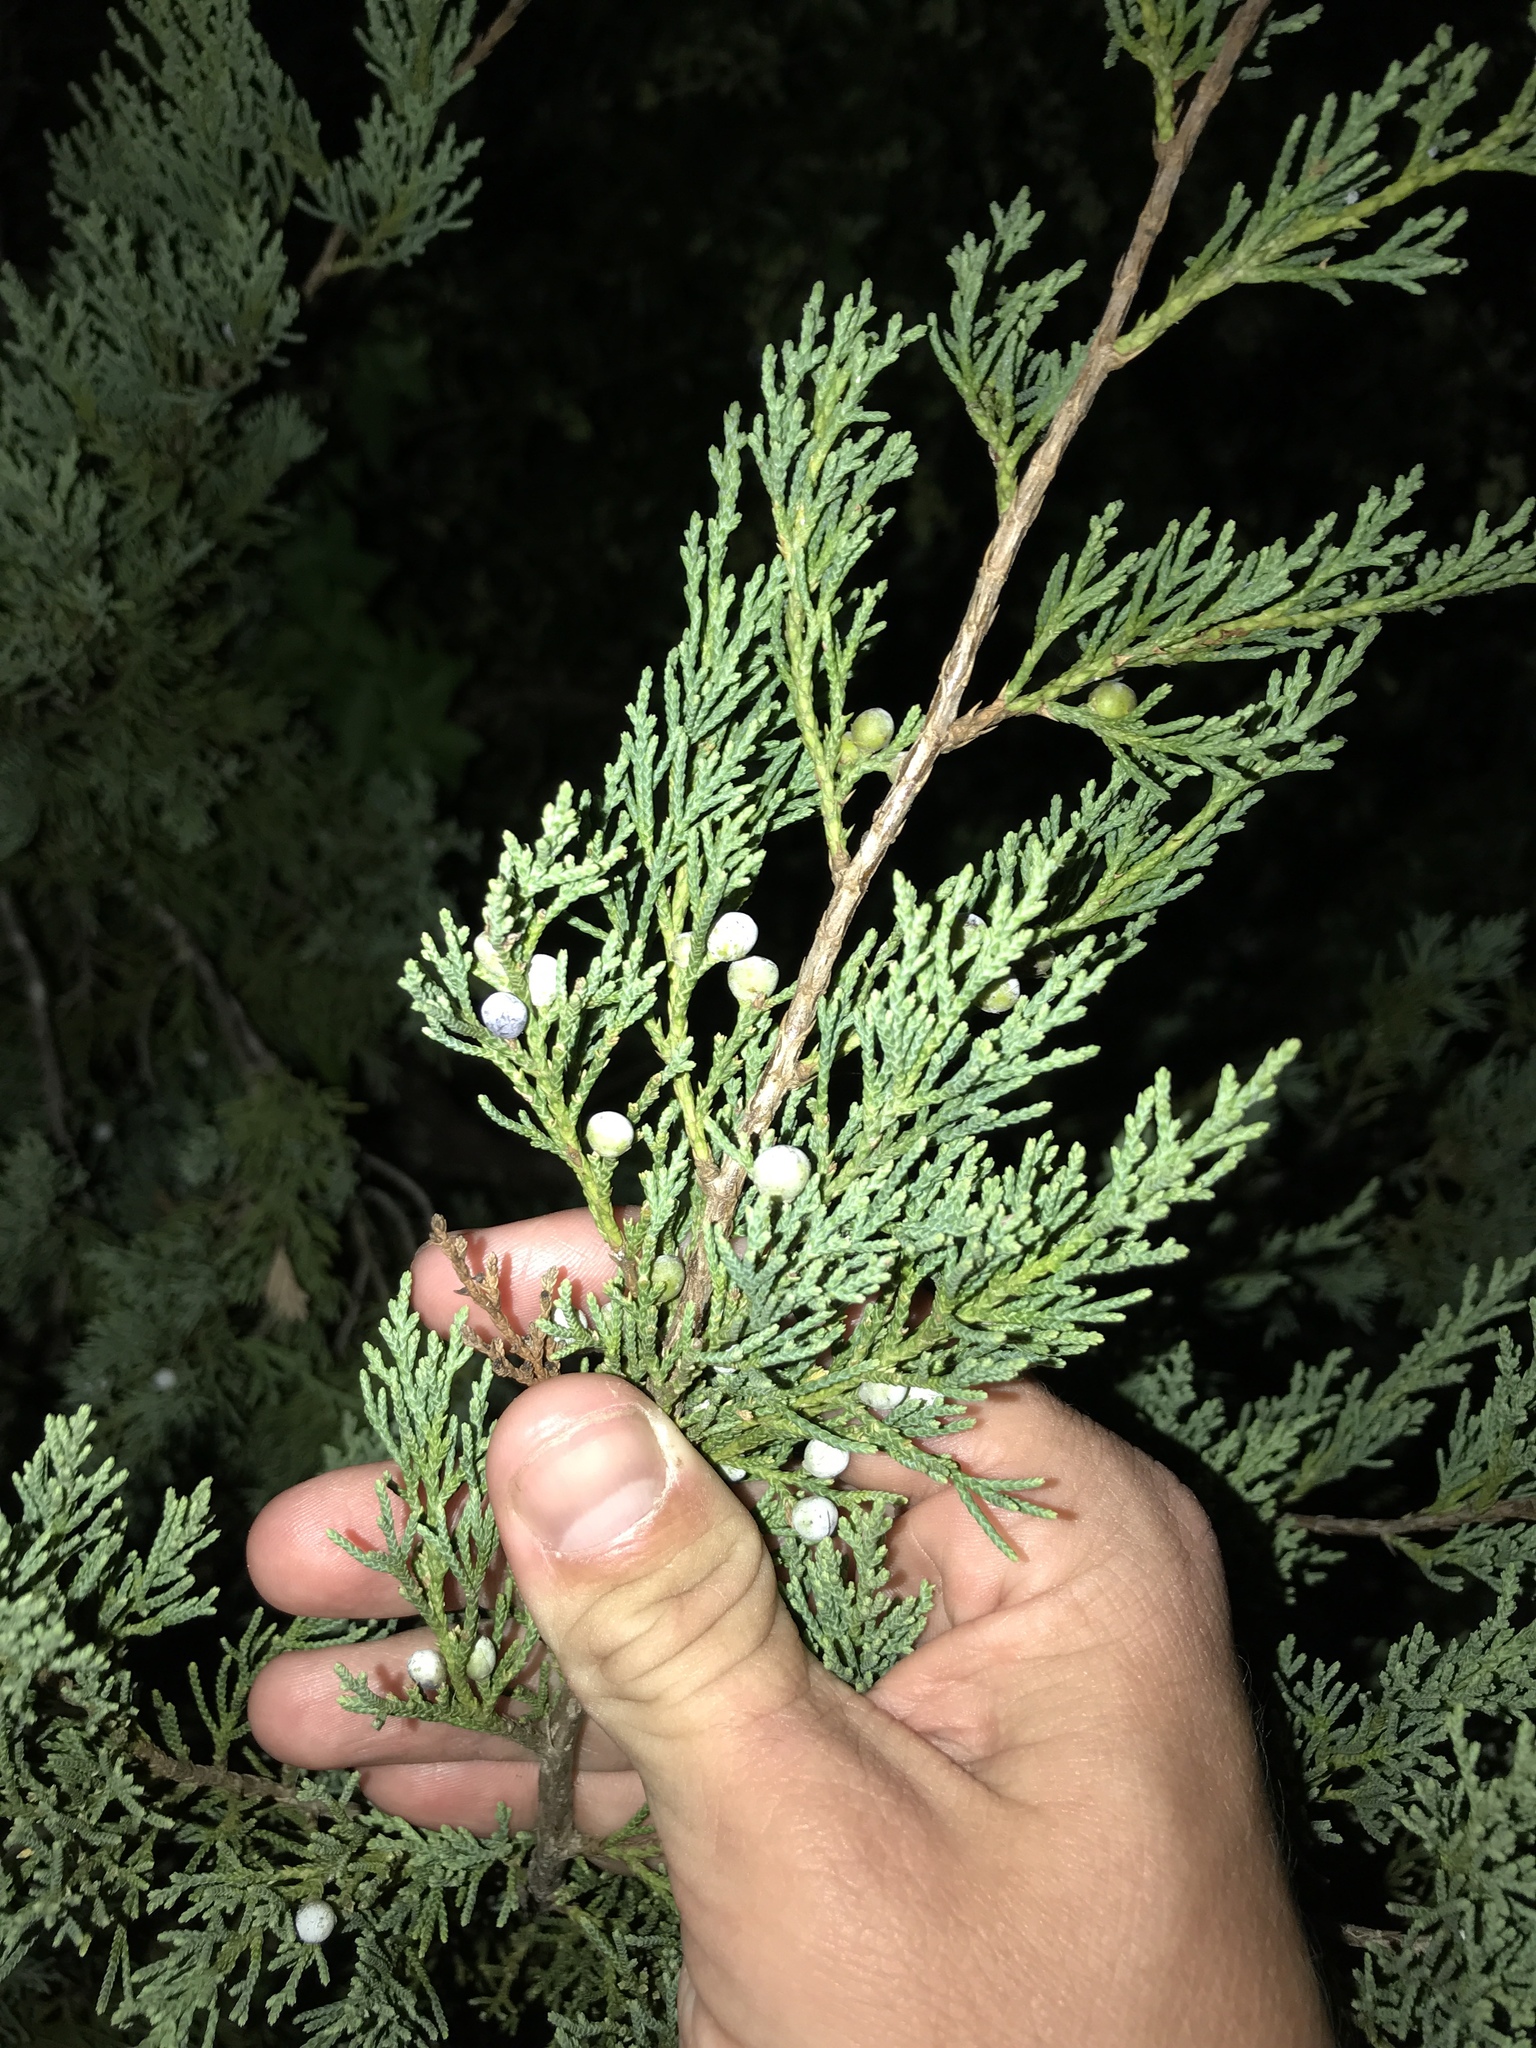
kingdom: Plantae
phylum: Tracheophyta
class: Pinopsida
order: Pinales
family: Cupressaceae
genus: Juniperus
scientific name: Juniperus virginiana
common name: Red juniper
